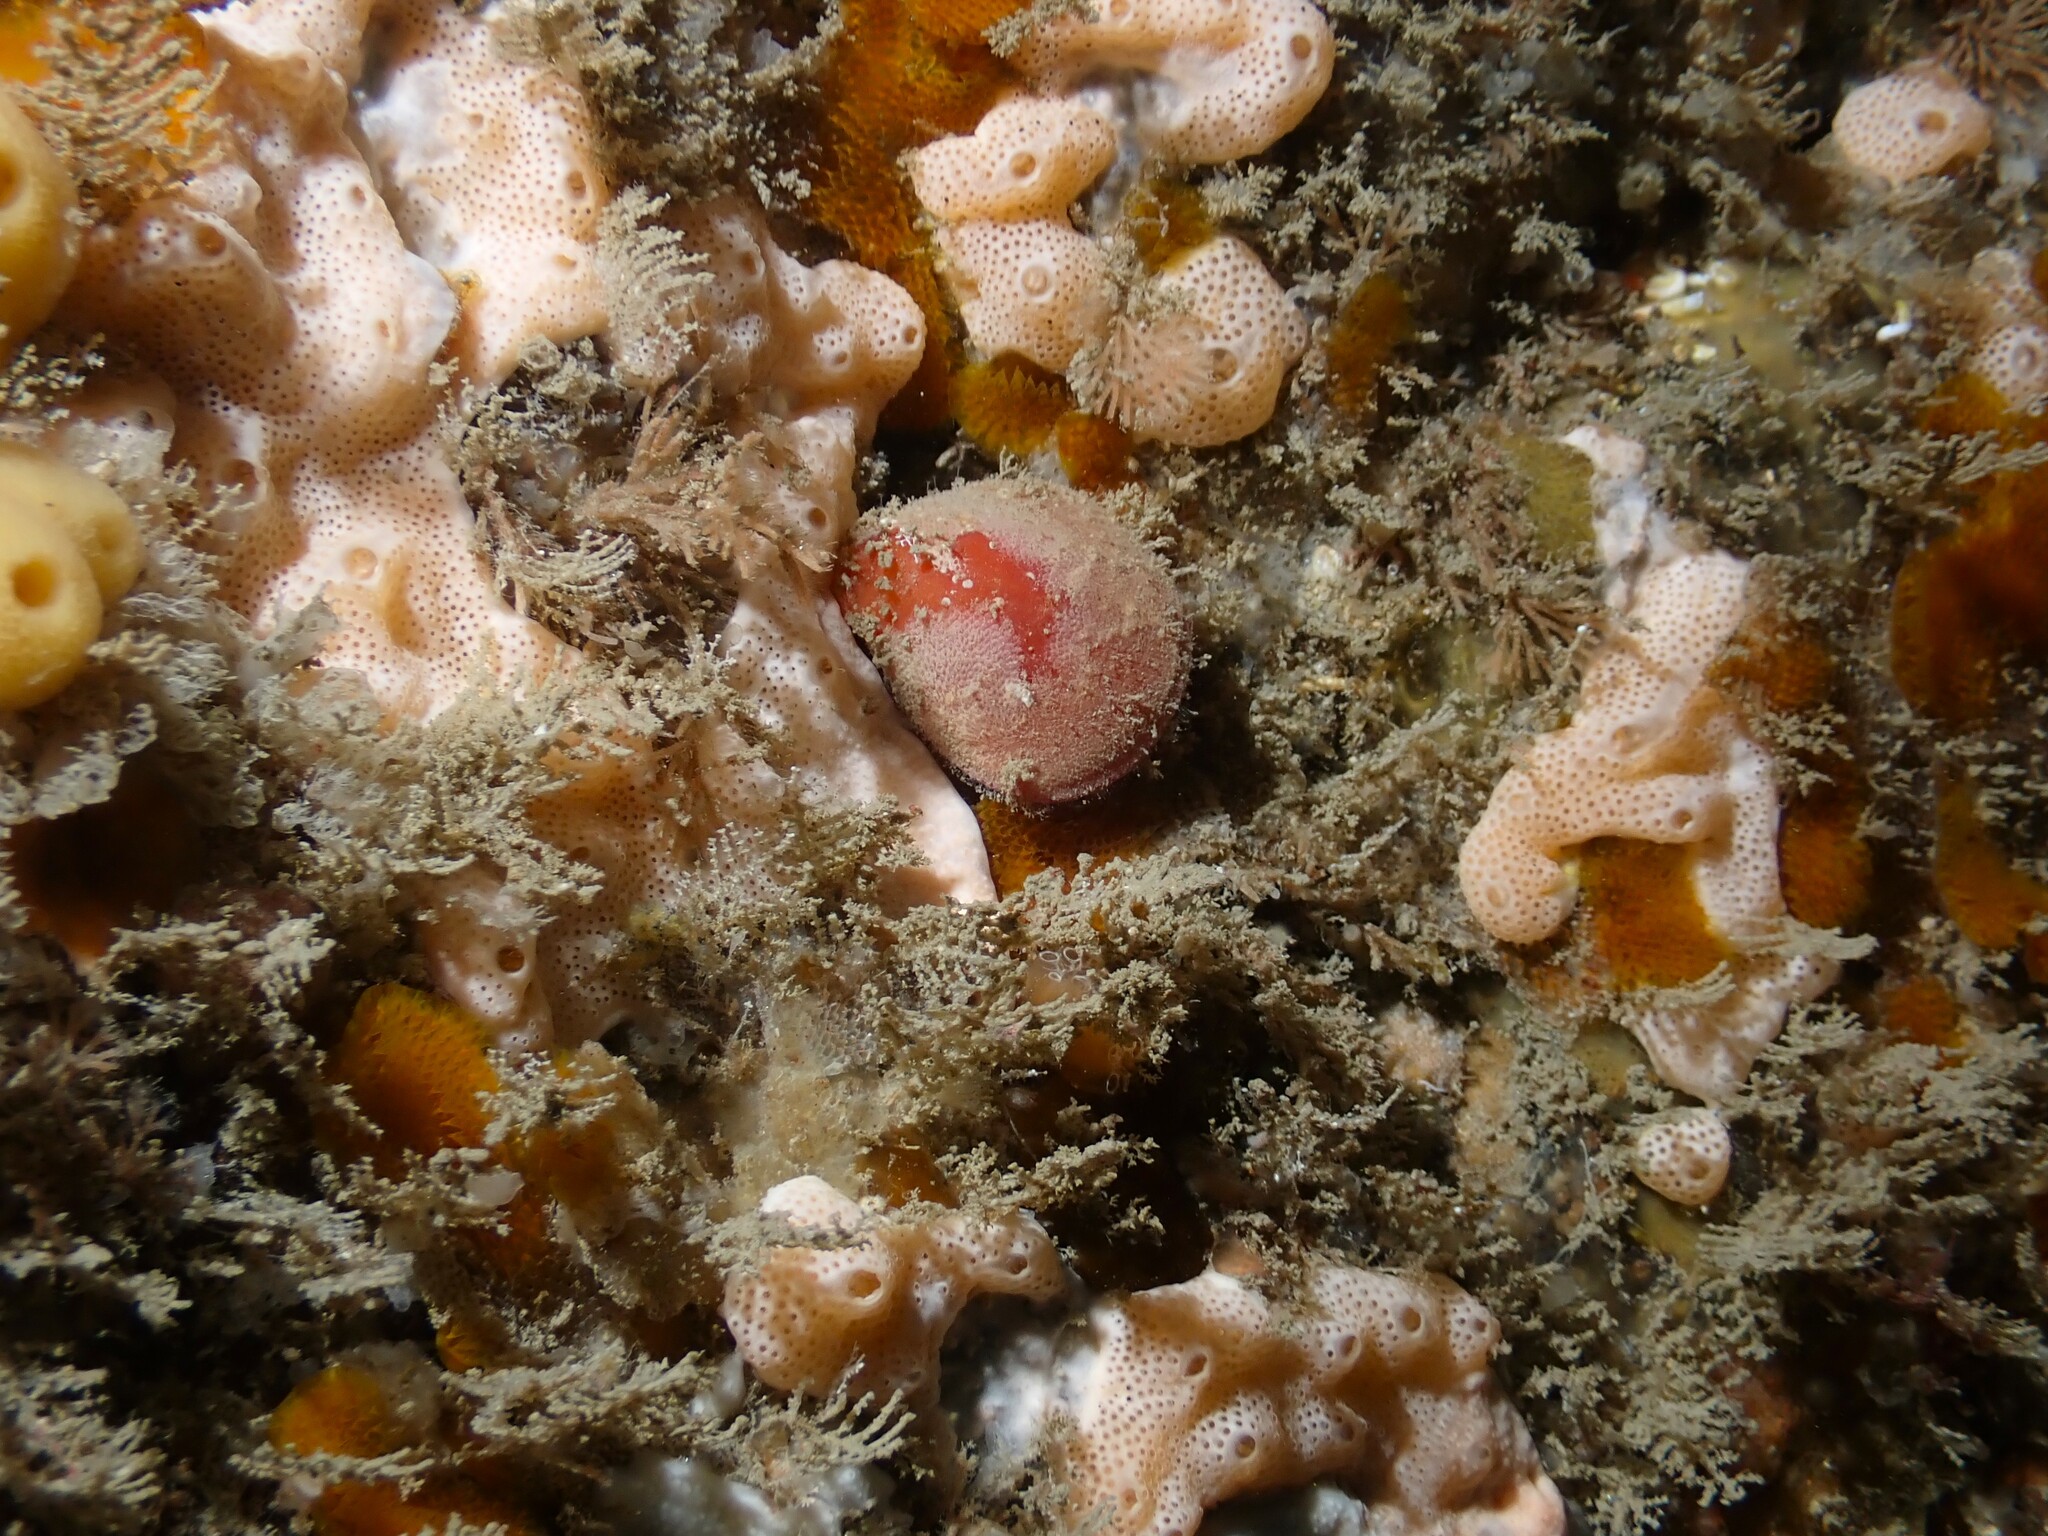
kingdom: Animalia
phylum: Brachiopoda
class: Rhynchonellata
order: Terebratulida
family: Terebratellidae
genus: Calloria
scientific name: Calloria inconspicua
